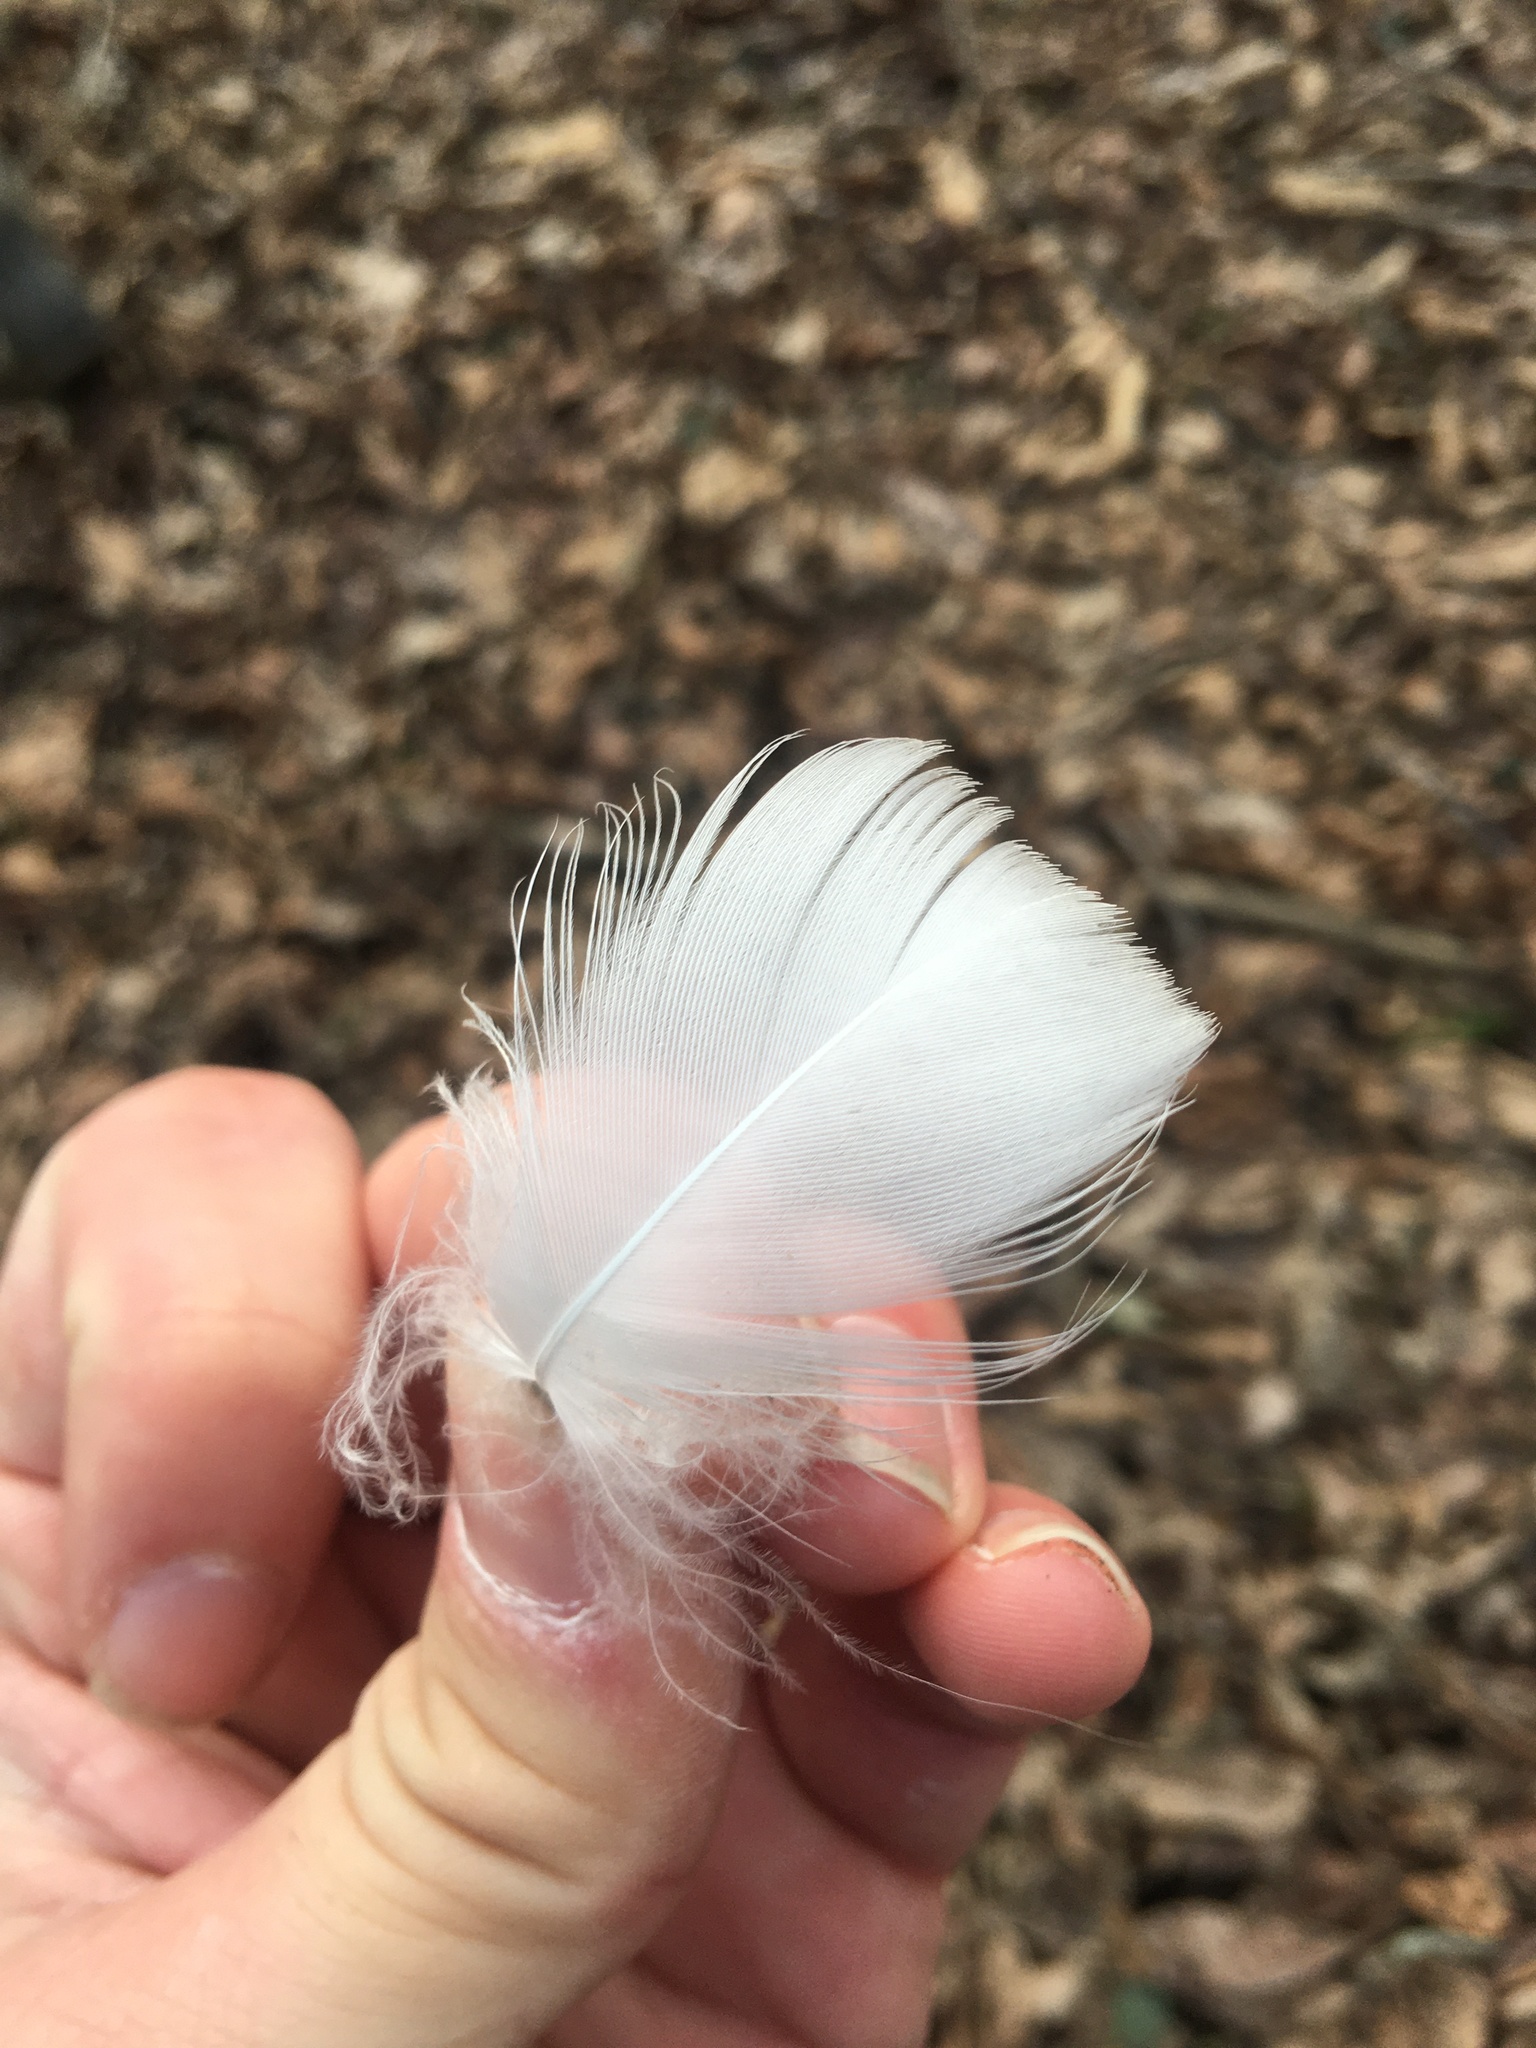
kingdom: Animalia
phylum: Chordata
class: Aves
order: Anseriformes
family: Anatidae
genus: Anser
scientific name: Anser caerulescens
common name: Snow goose
